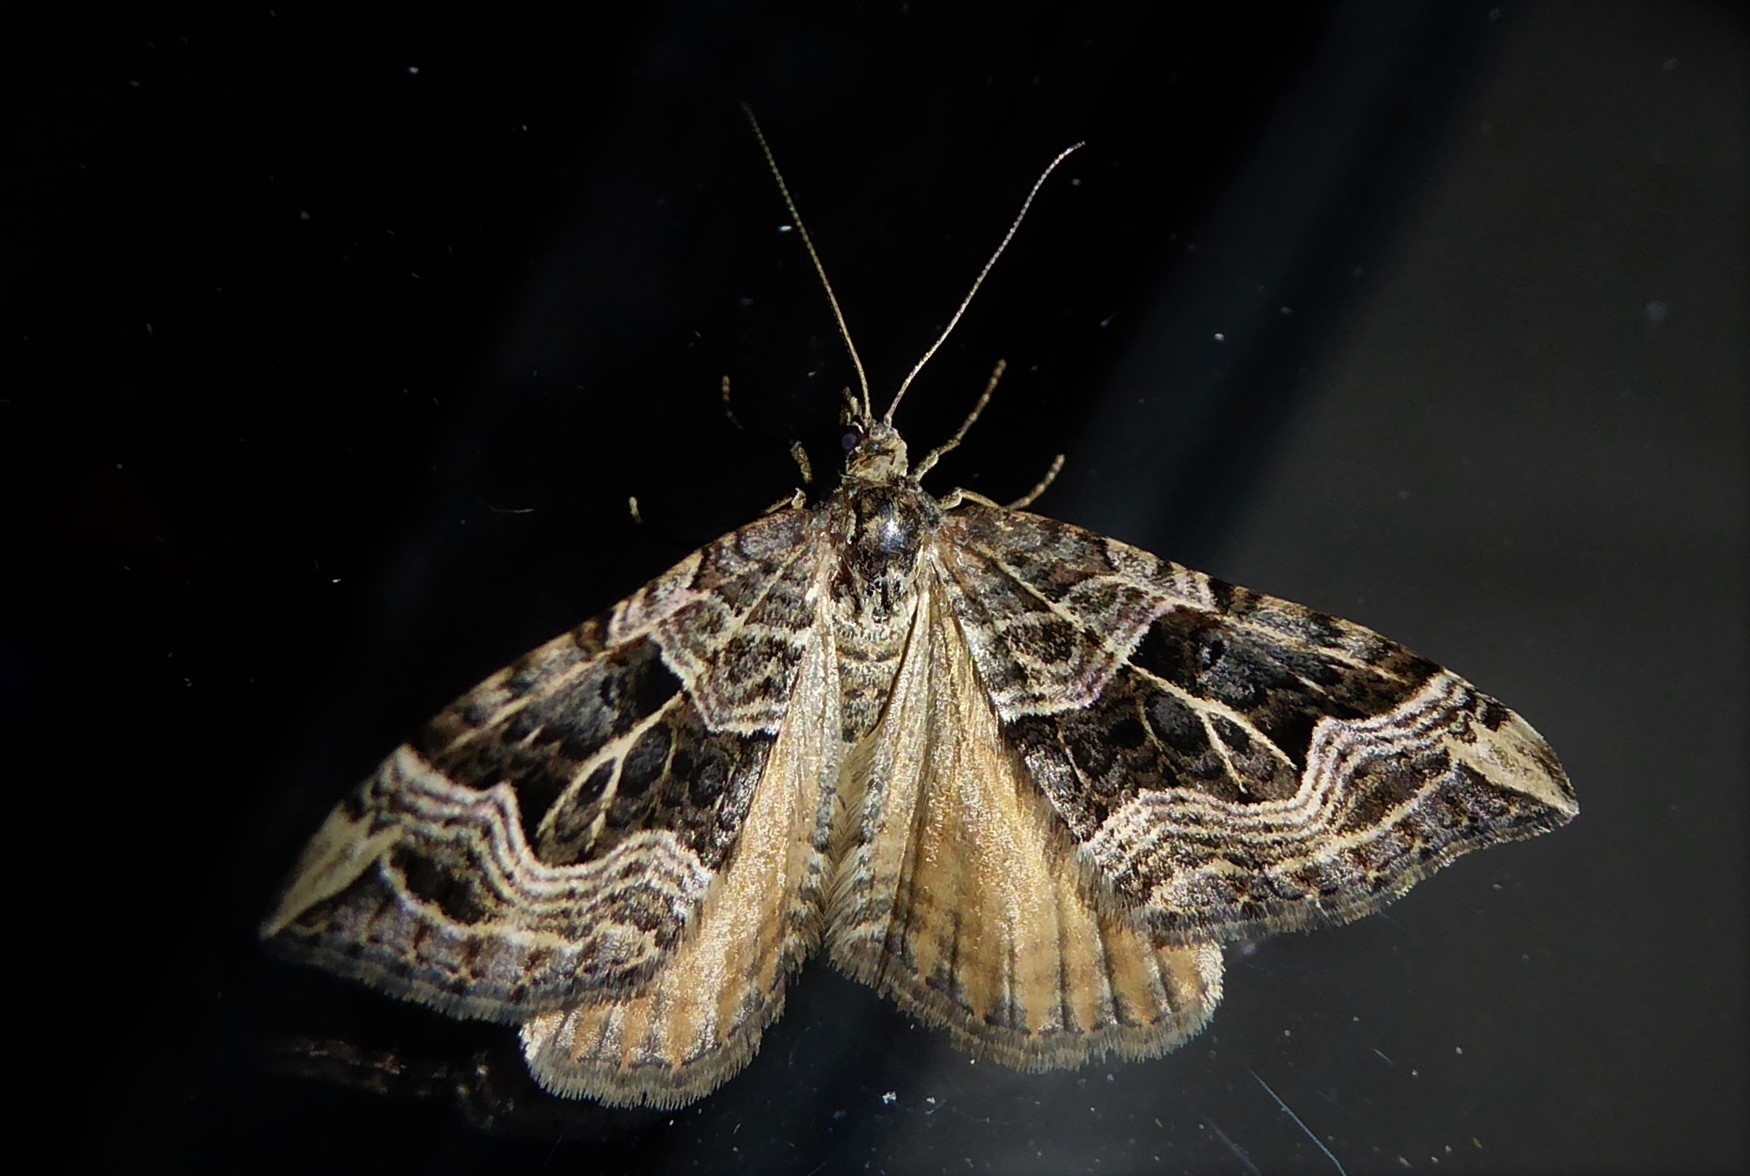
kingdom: Animalia
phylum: Arthropoda
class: Insecta
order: Lepidoptera
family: Geometridae
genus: Xanthorhoe
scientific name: Xanthorhoe semifissata
